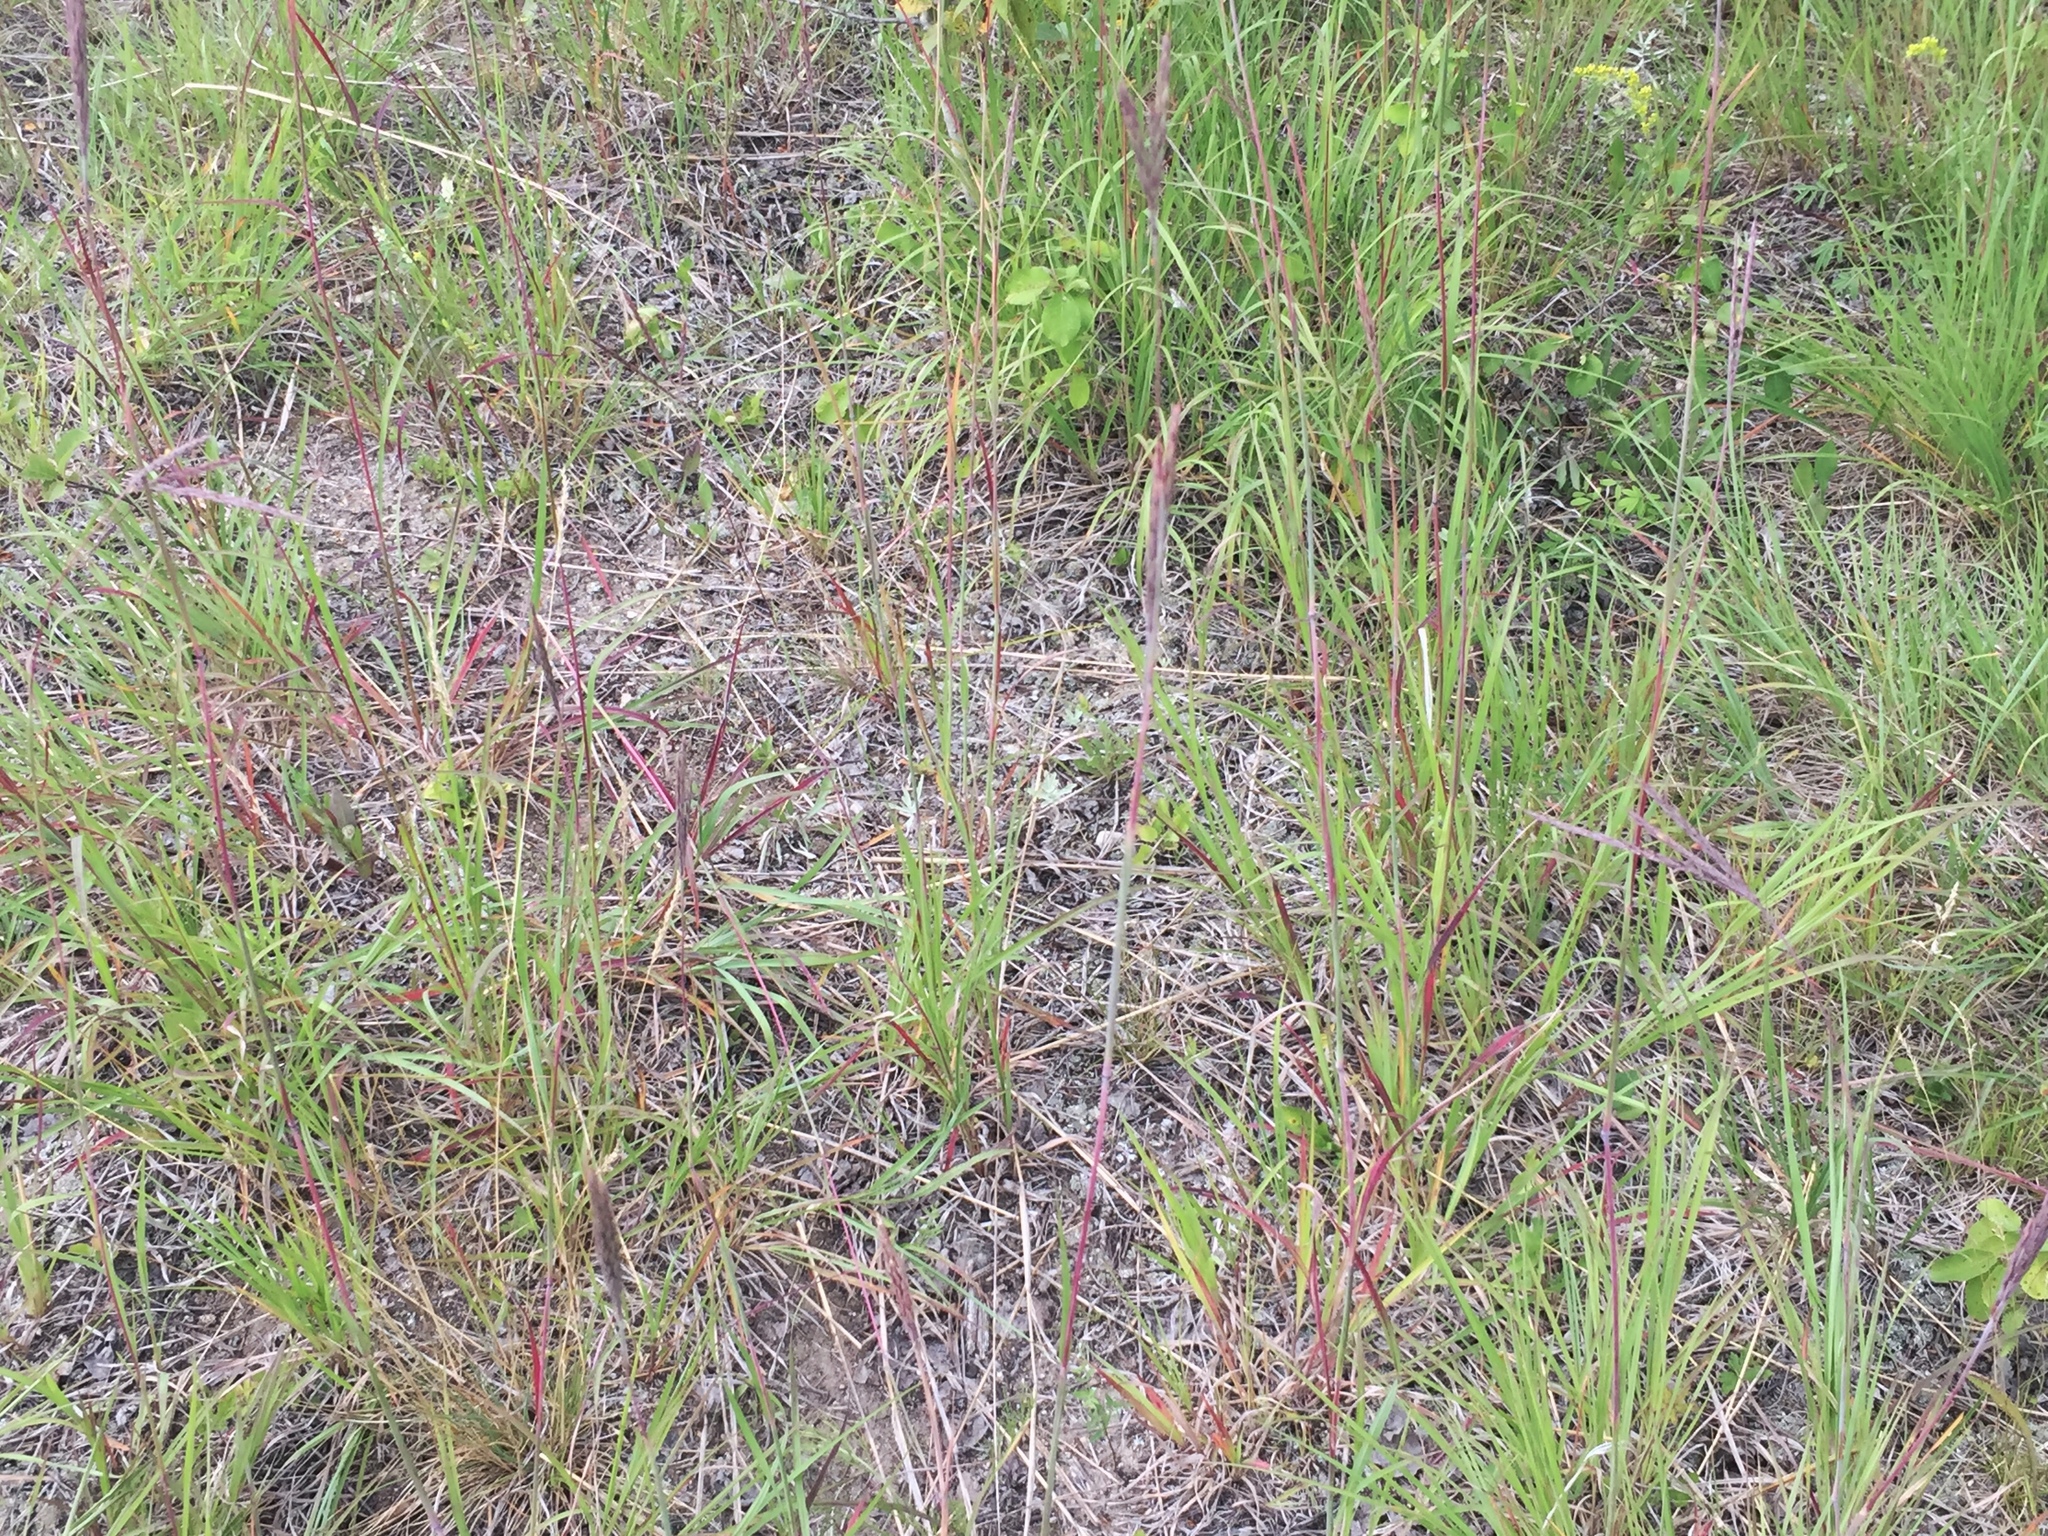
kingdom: Plantae
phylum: Tracheophyta
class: Liliopsida
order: Poales
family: Poaceae
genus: Andropogon
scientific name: Andropogon gerardi
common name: Big bluestem
